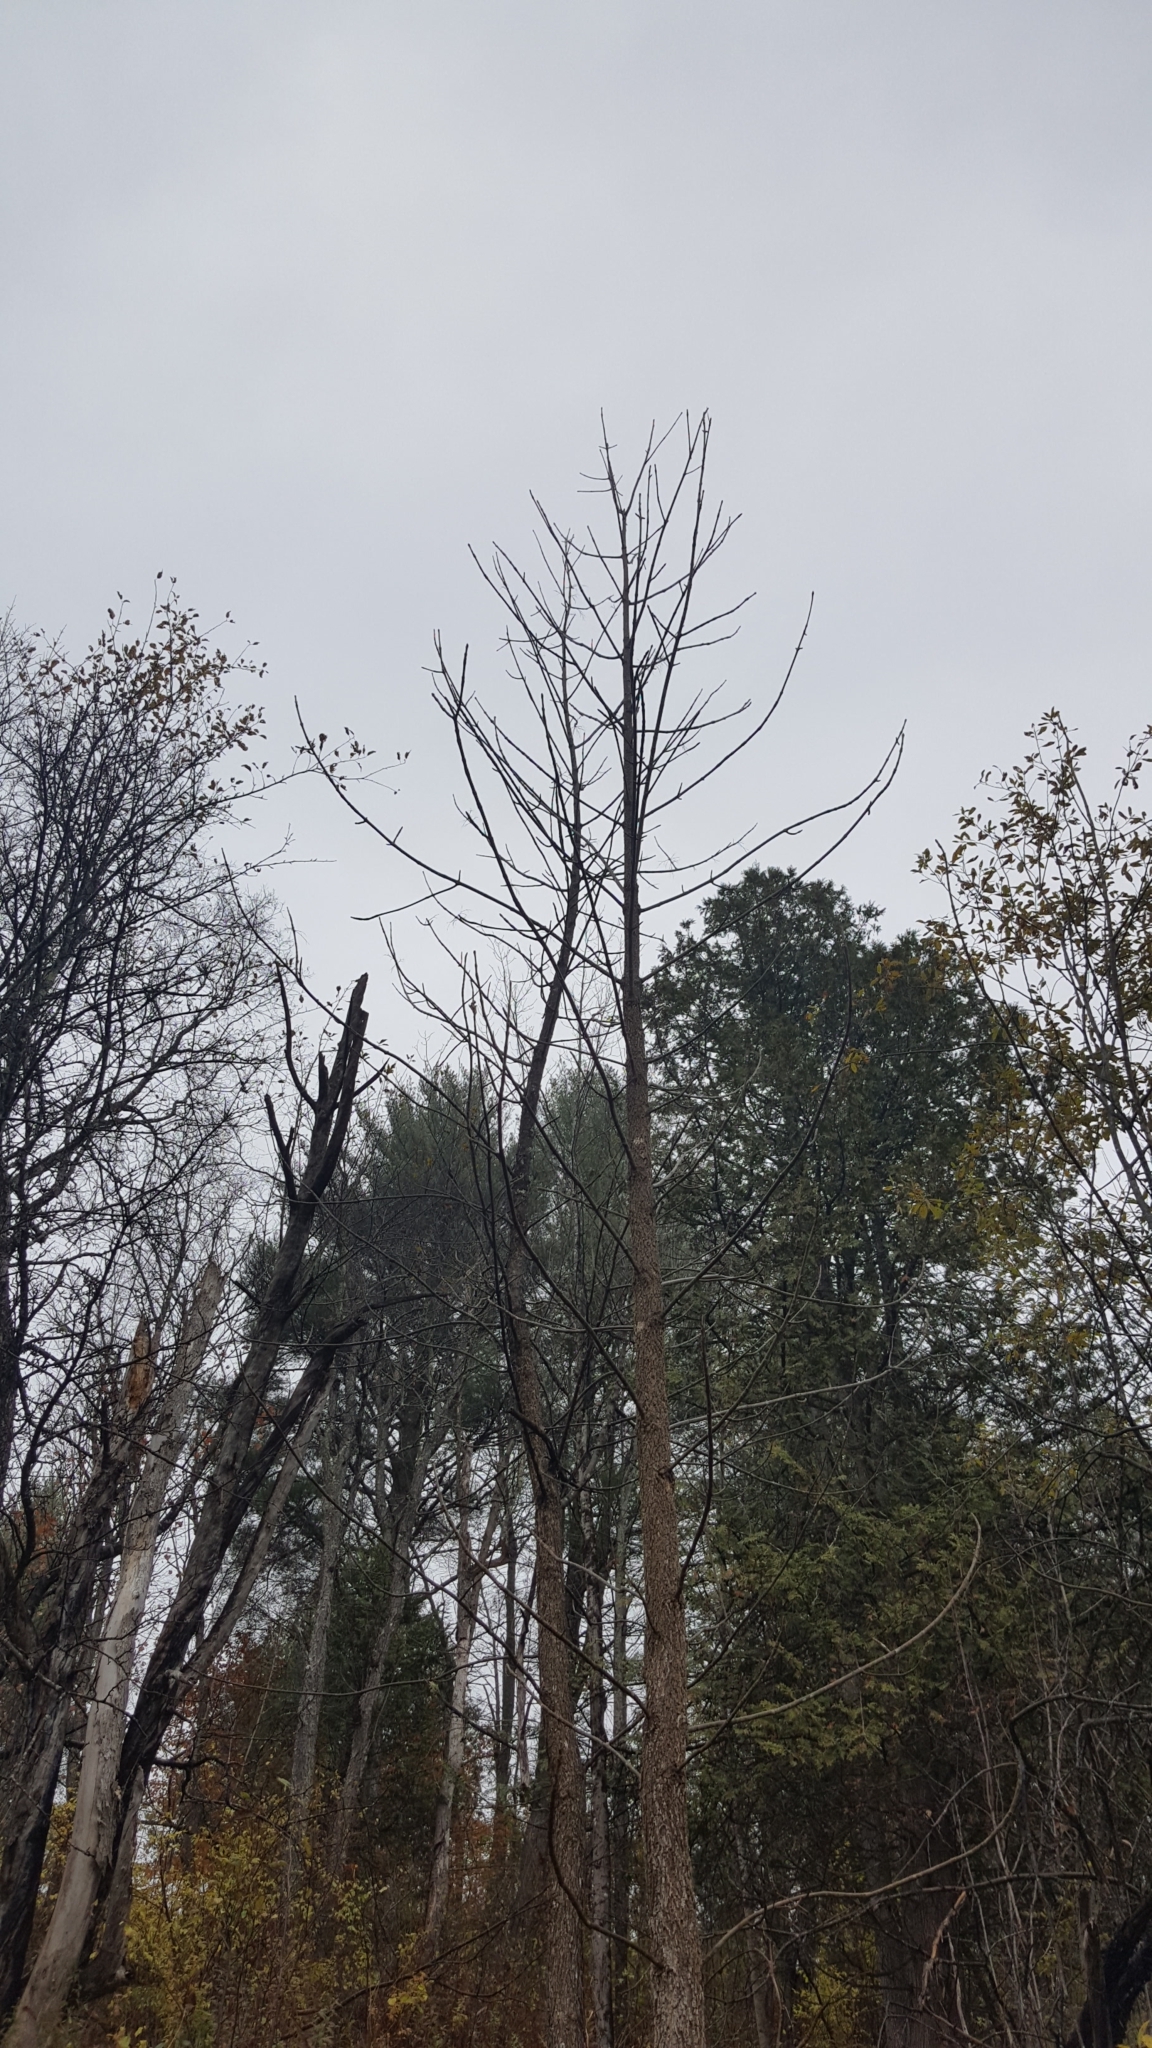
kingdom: Plantae
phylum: Tracheophyta
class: Magnoliopsida
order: Lamiales
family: Oleaceae
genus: Fraxinus
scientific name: Fraxinus nigra
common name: Black ash
